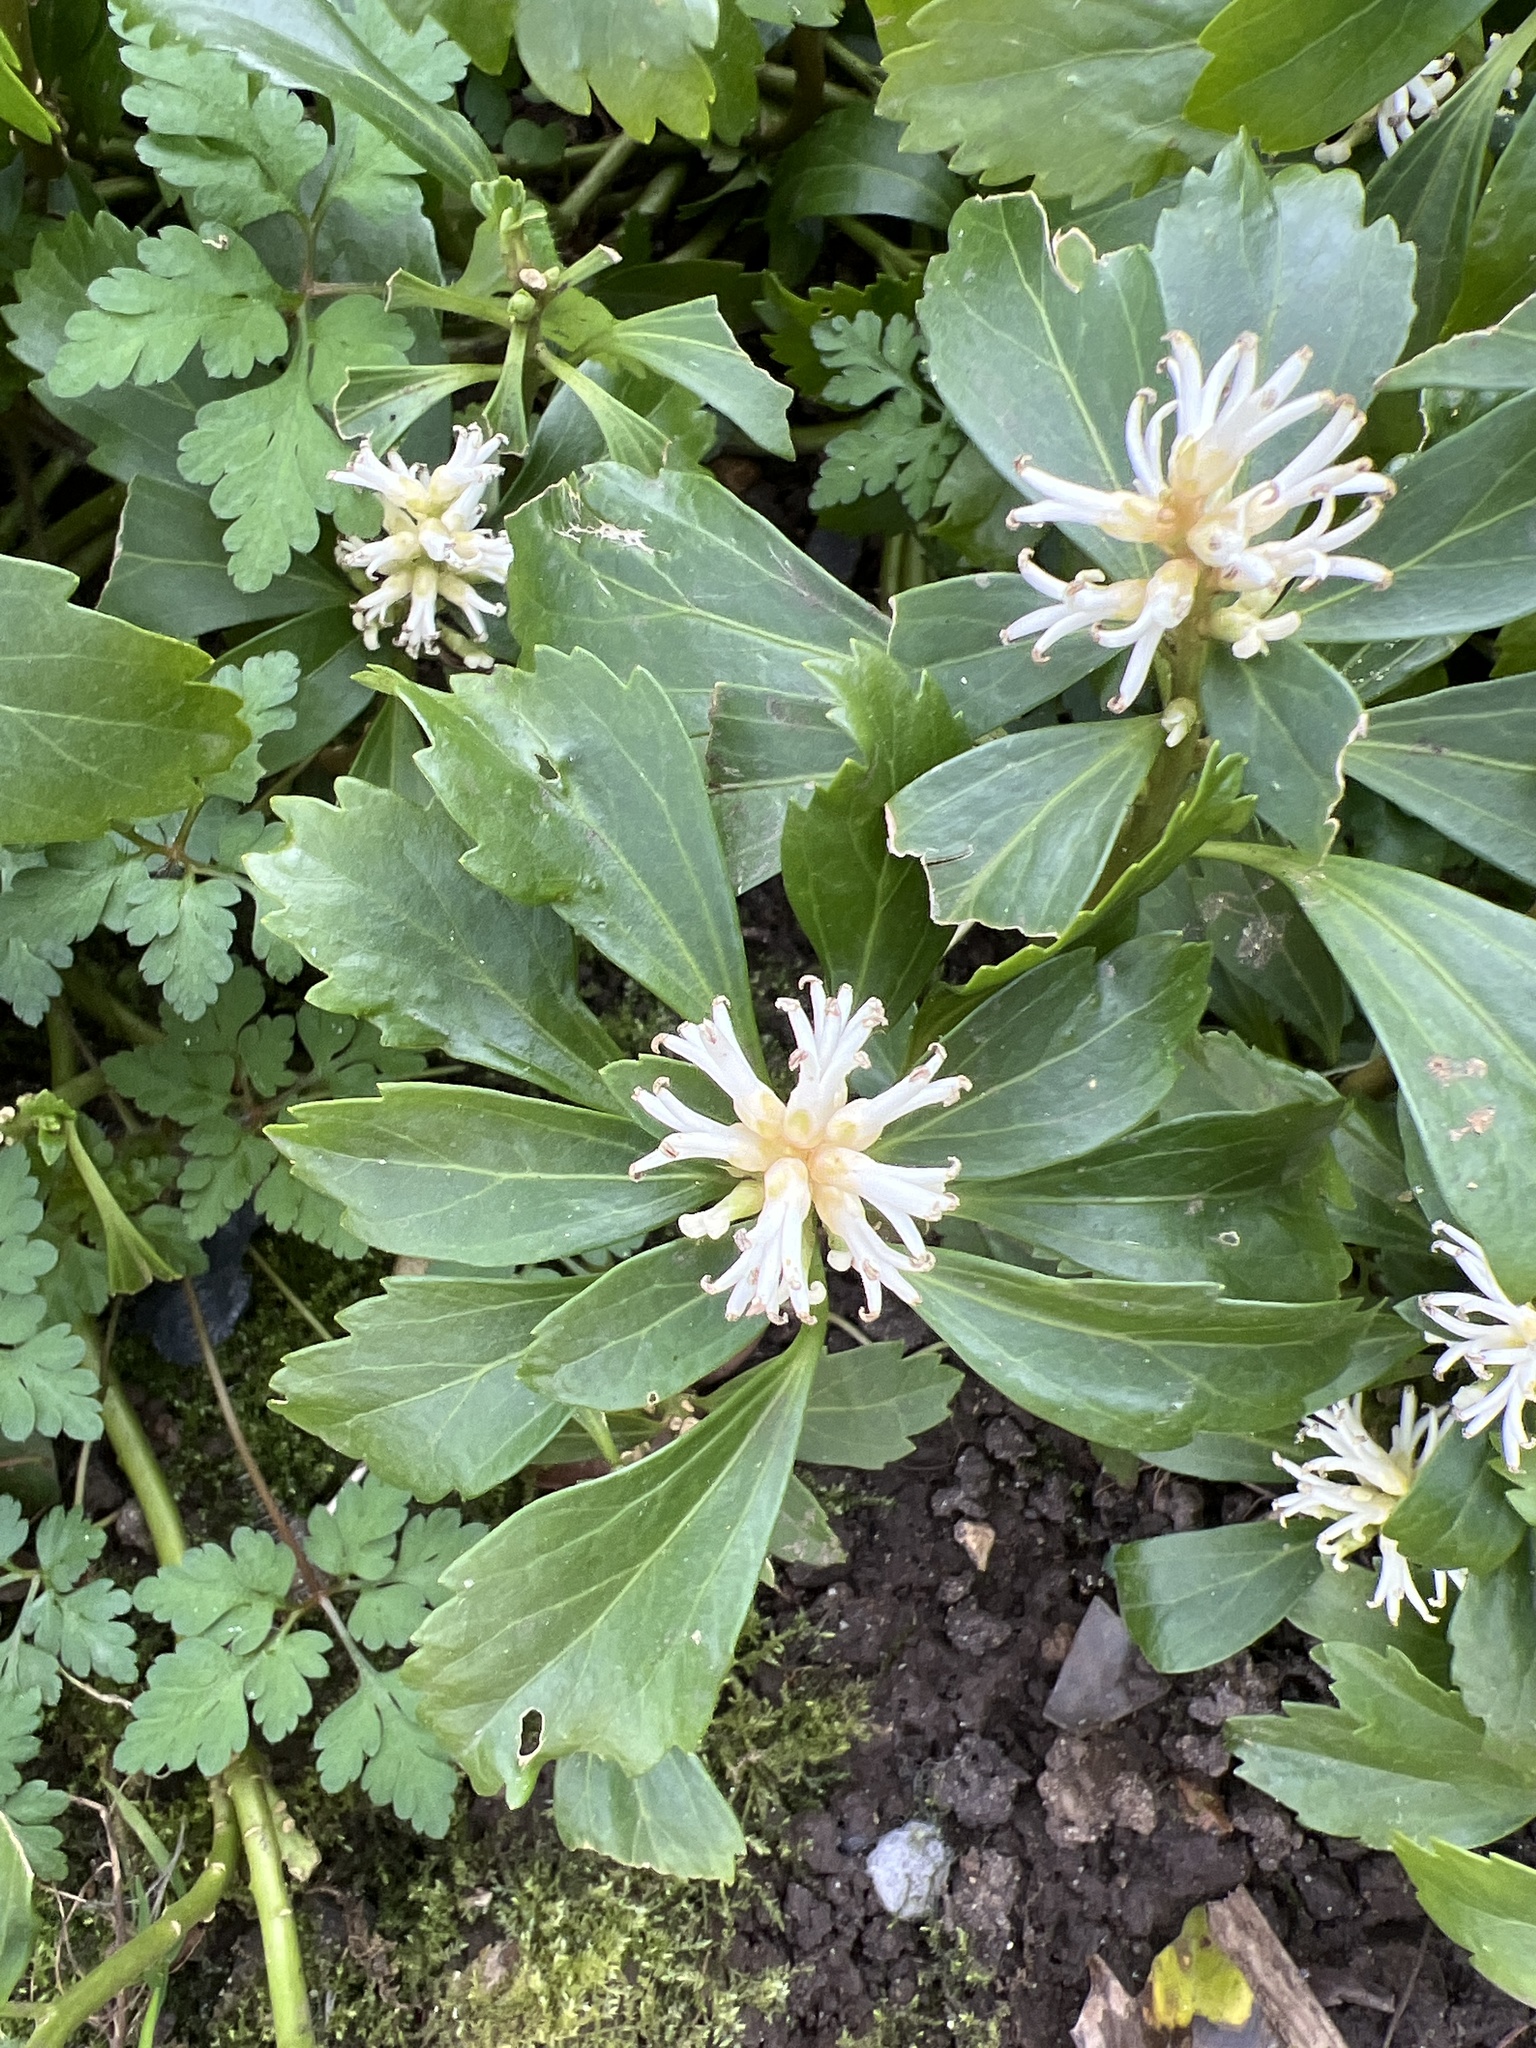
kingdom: Plantae
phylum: Tracheophyta
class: Magnoliopsida
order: Buxales
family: Buxaceae
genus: Pachysandra
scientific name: Pachysandra terminalis
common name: Japanese pachysandra
